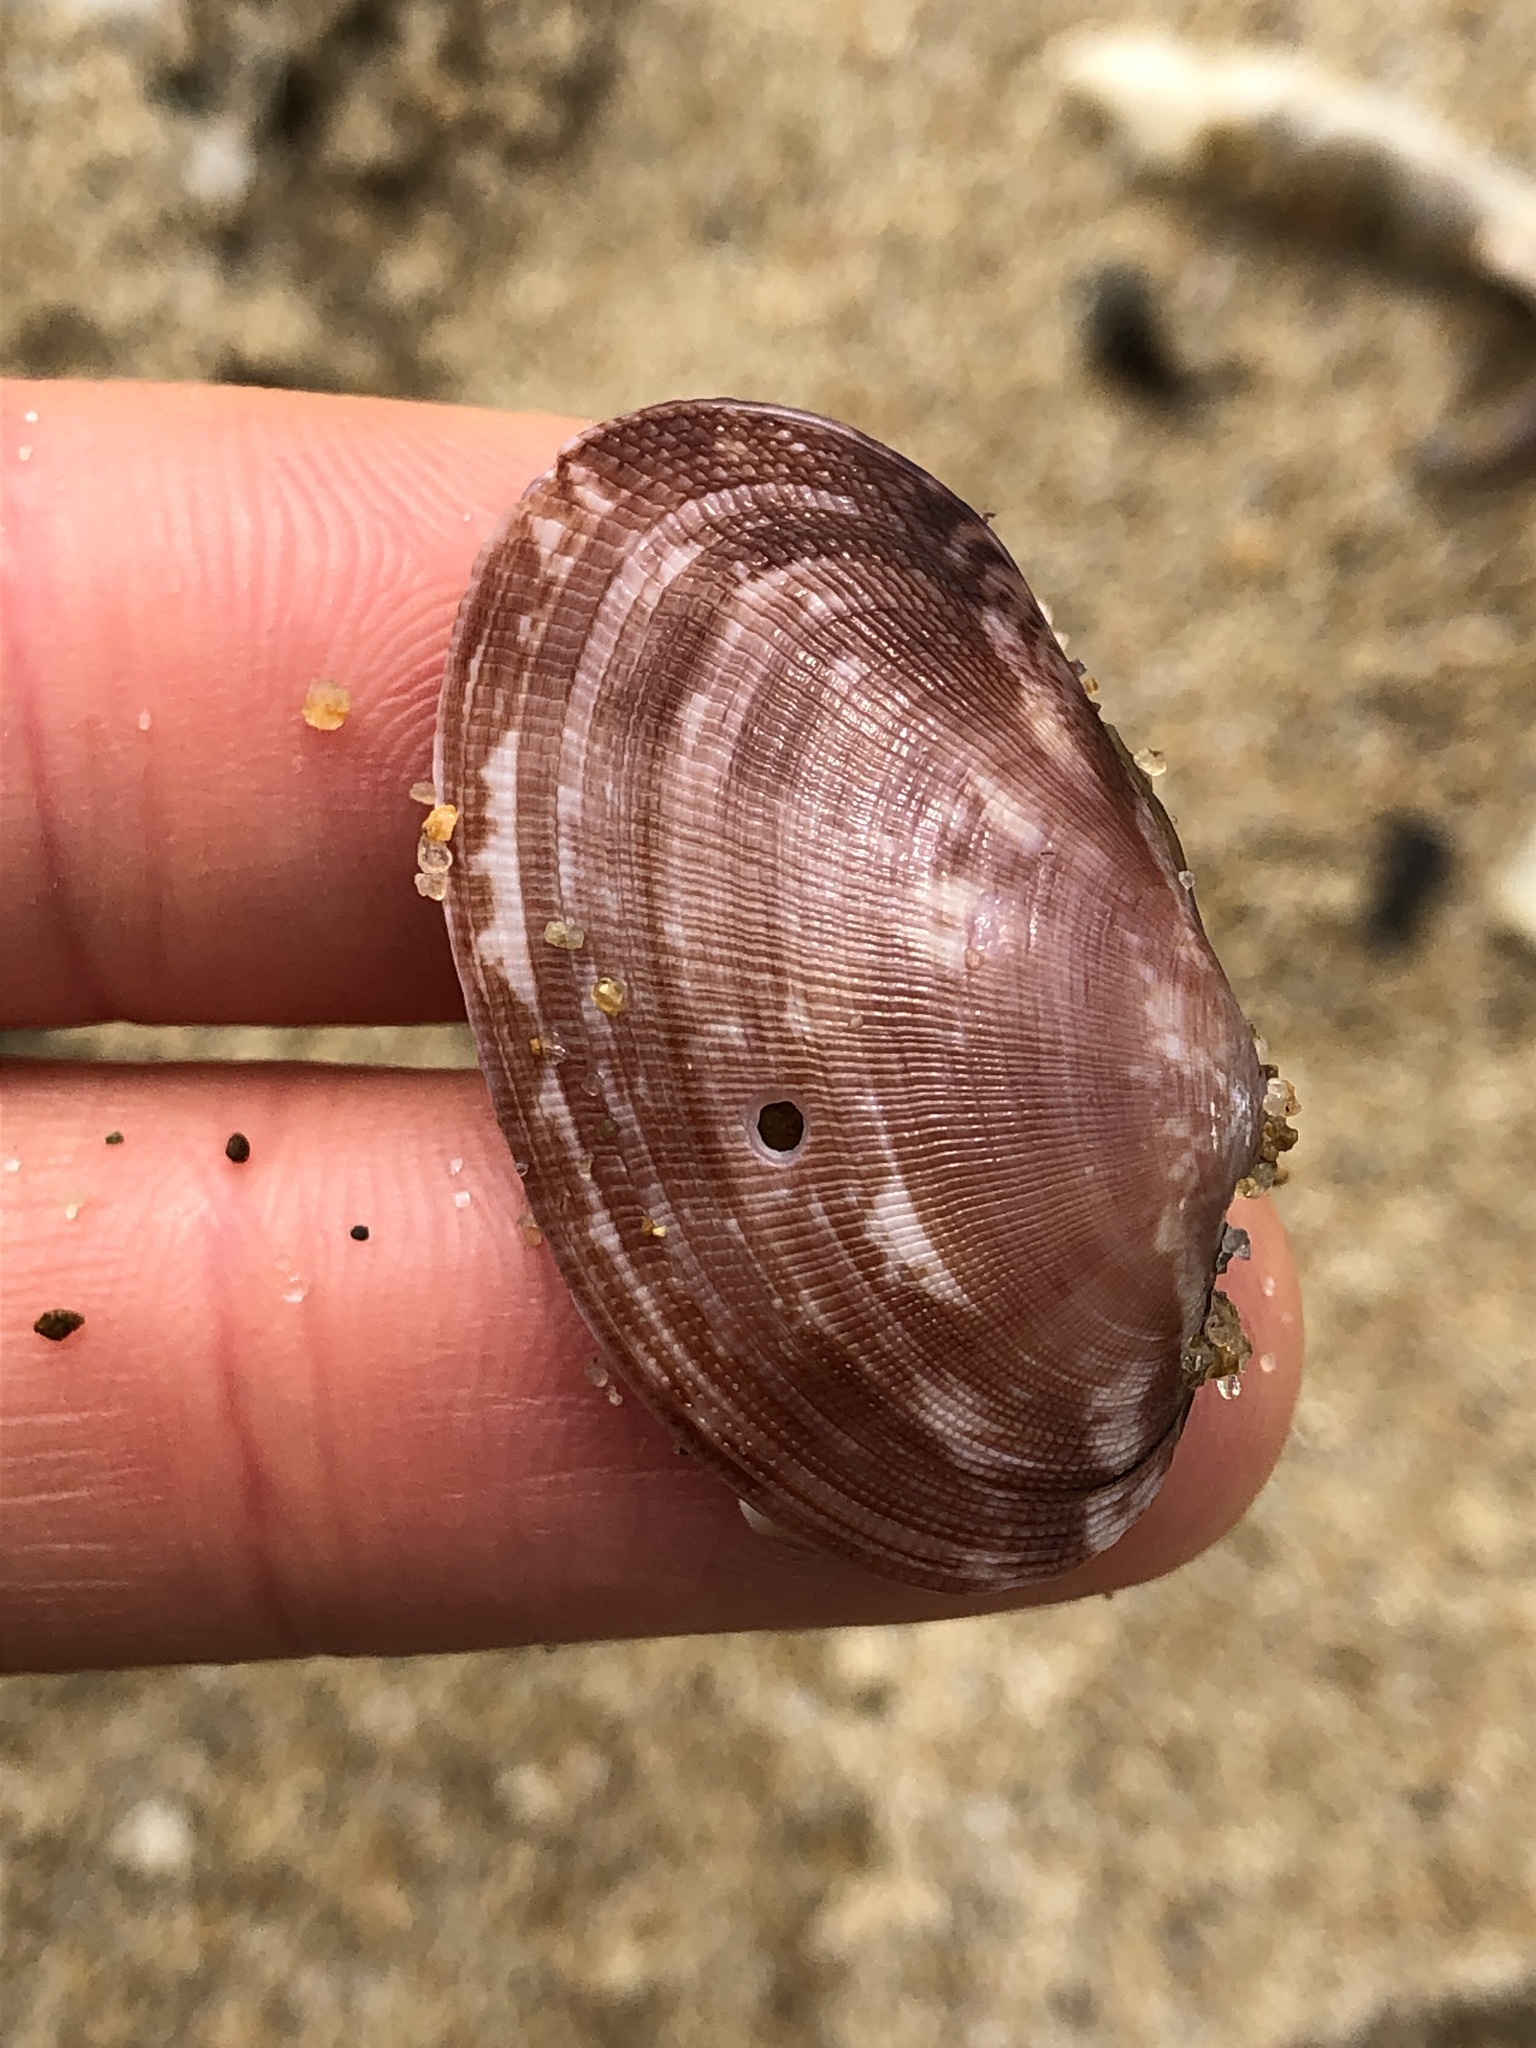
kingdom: Animalia
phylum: Mollusca
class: Bivalvia
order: Venerida
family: Veneridae
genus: Ruditapes
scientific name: Ruditapes philippinarum
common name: Manila clam
